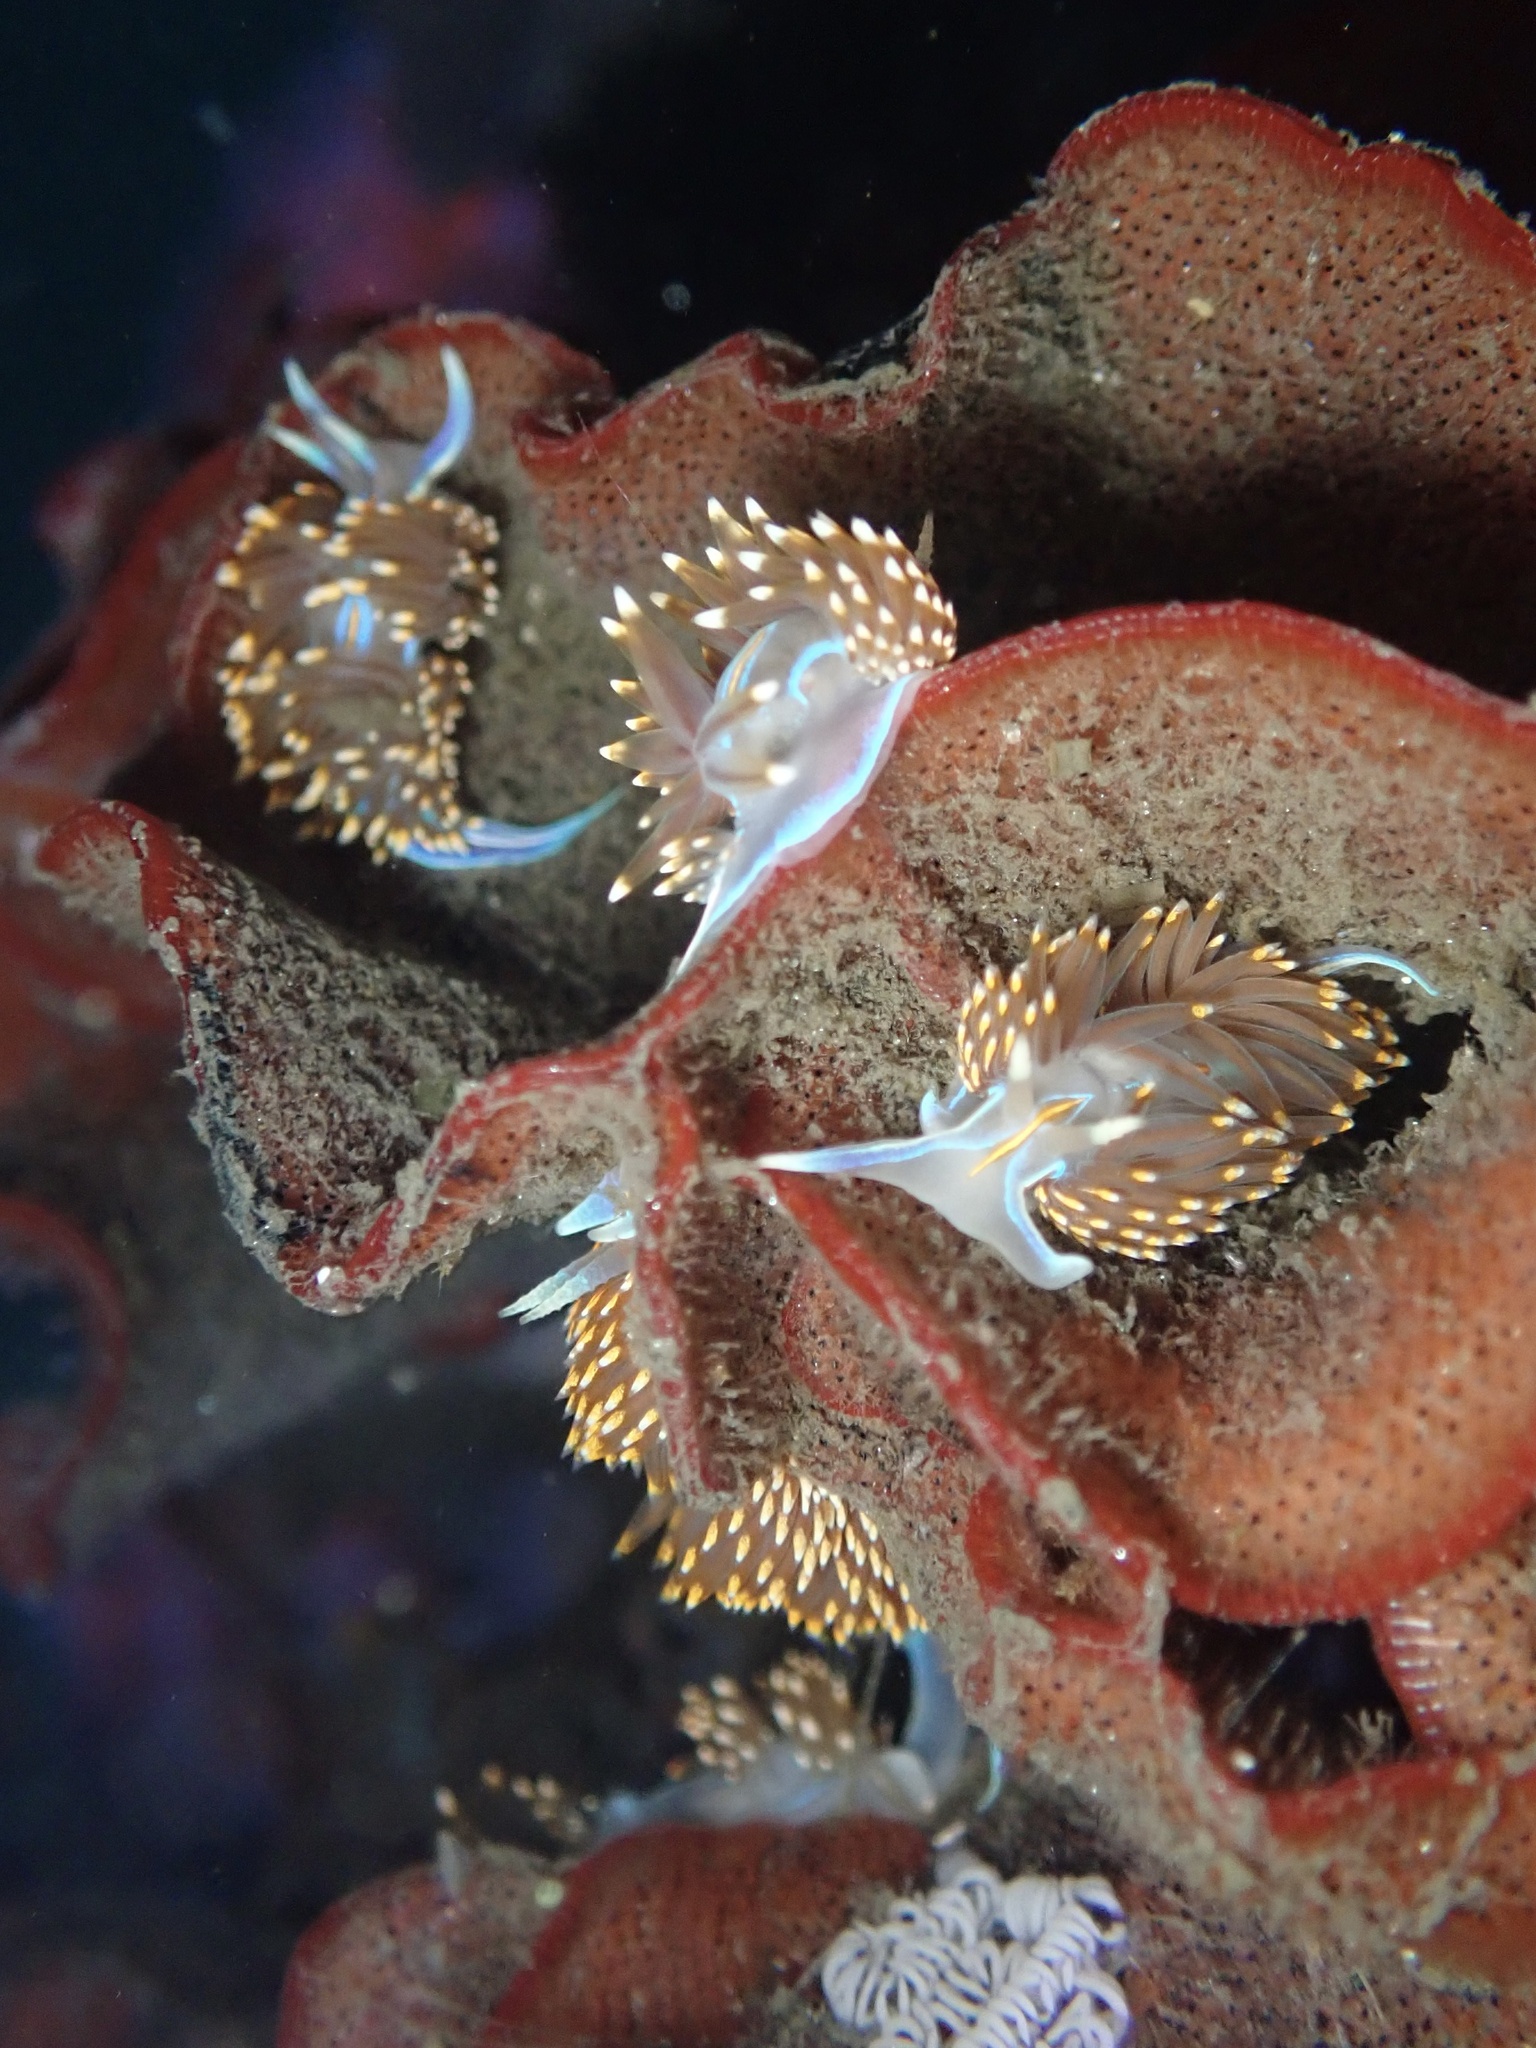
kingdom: Animalia
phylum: Mollusca
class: Gastropoda
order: Nudibranchia
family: Myrrhinidae
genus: Hermissenda
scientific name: Hermissenda opalescens
